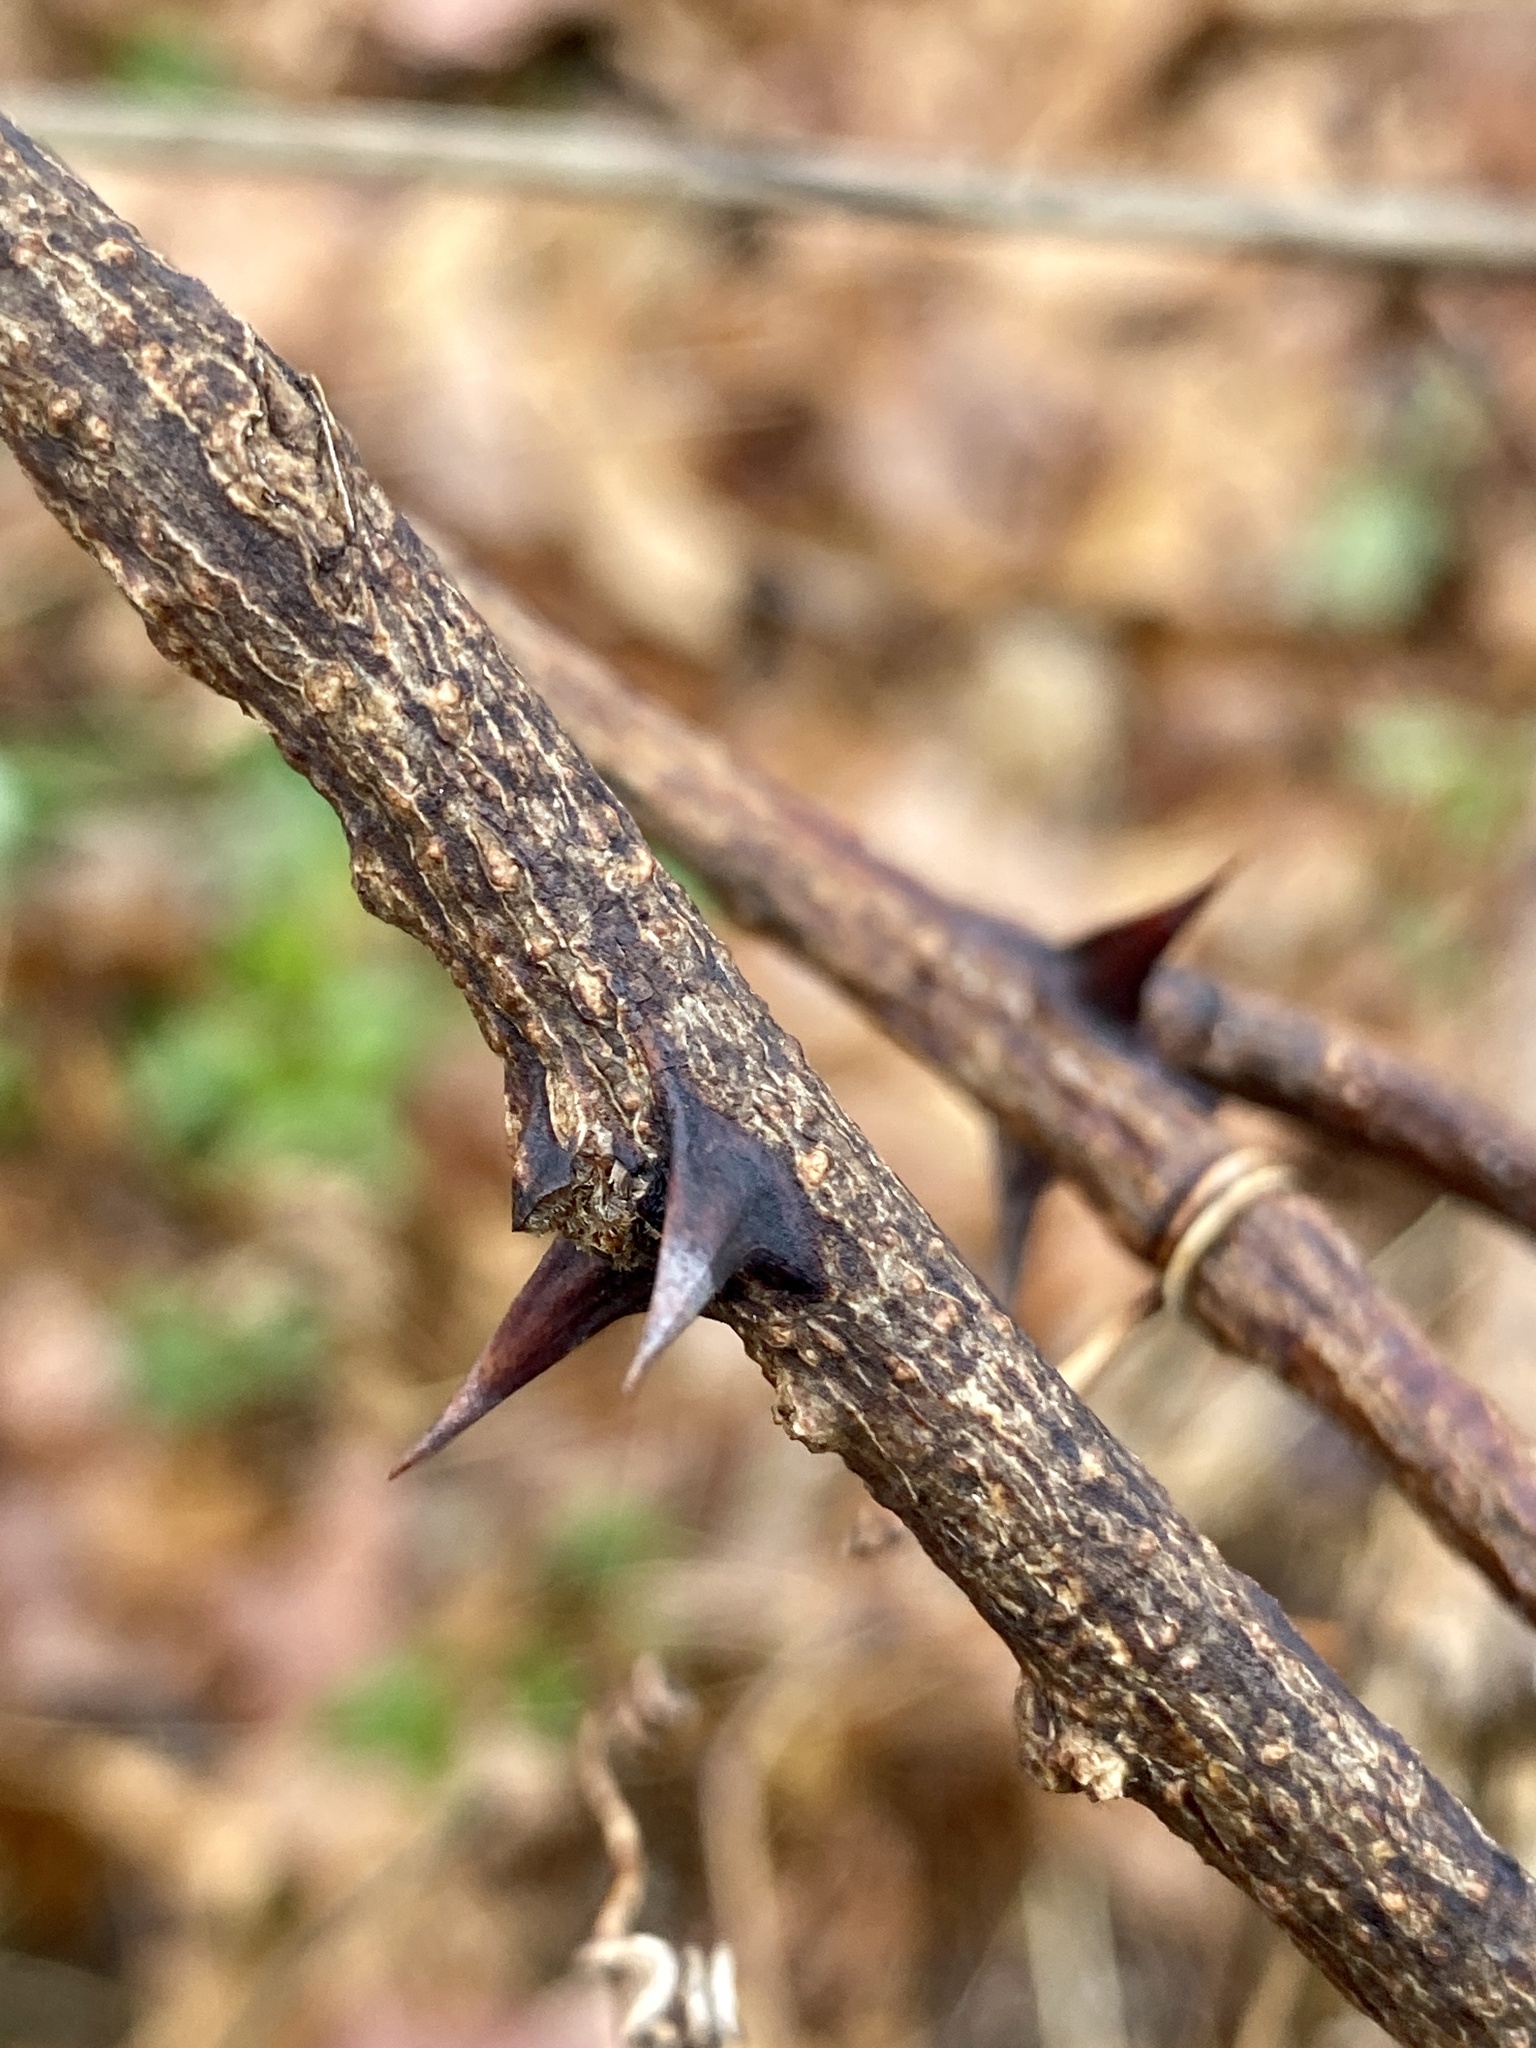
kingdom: Plantae
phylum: Tracheophyta
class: Magnoliopsida
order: Fabales
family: Fabaceae
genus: Robinia
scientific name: Robinia pseudoacacia
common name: Black locust
